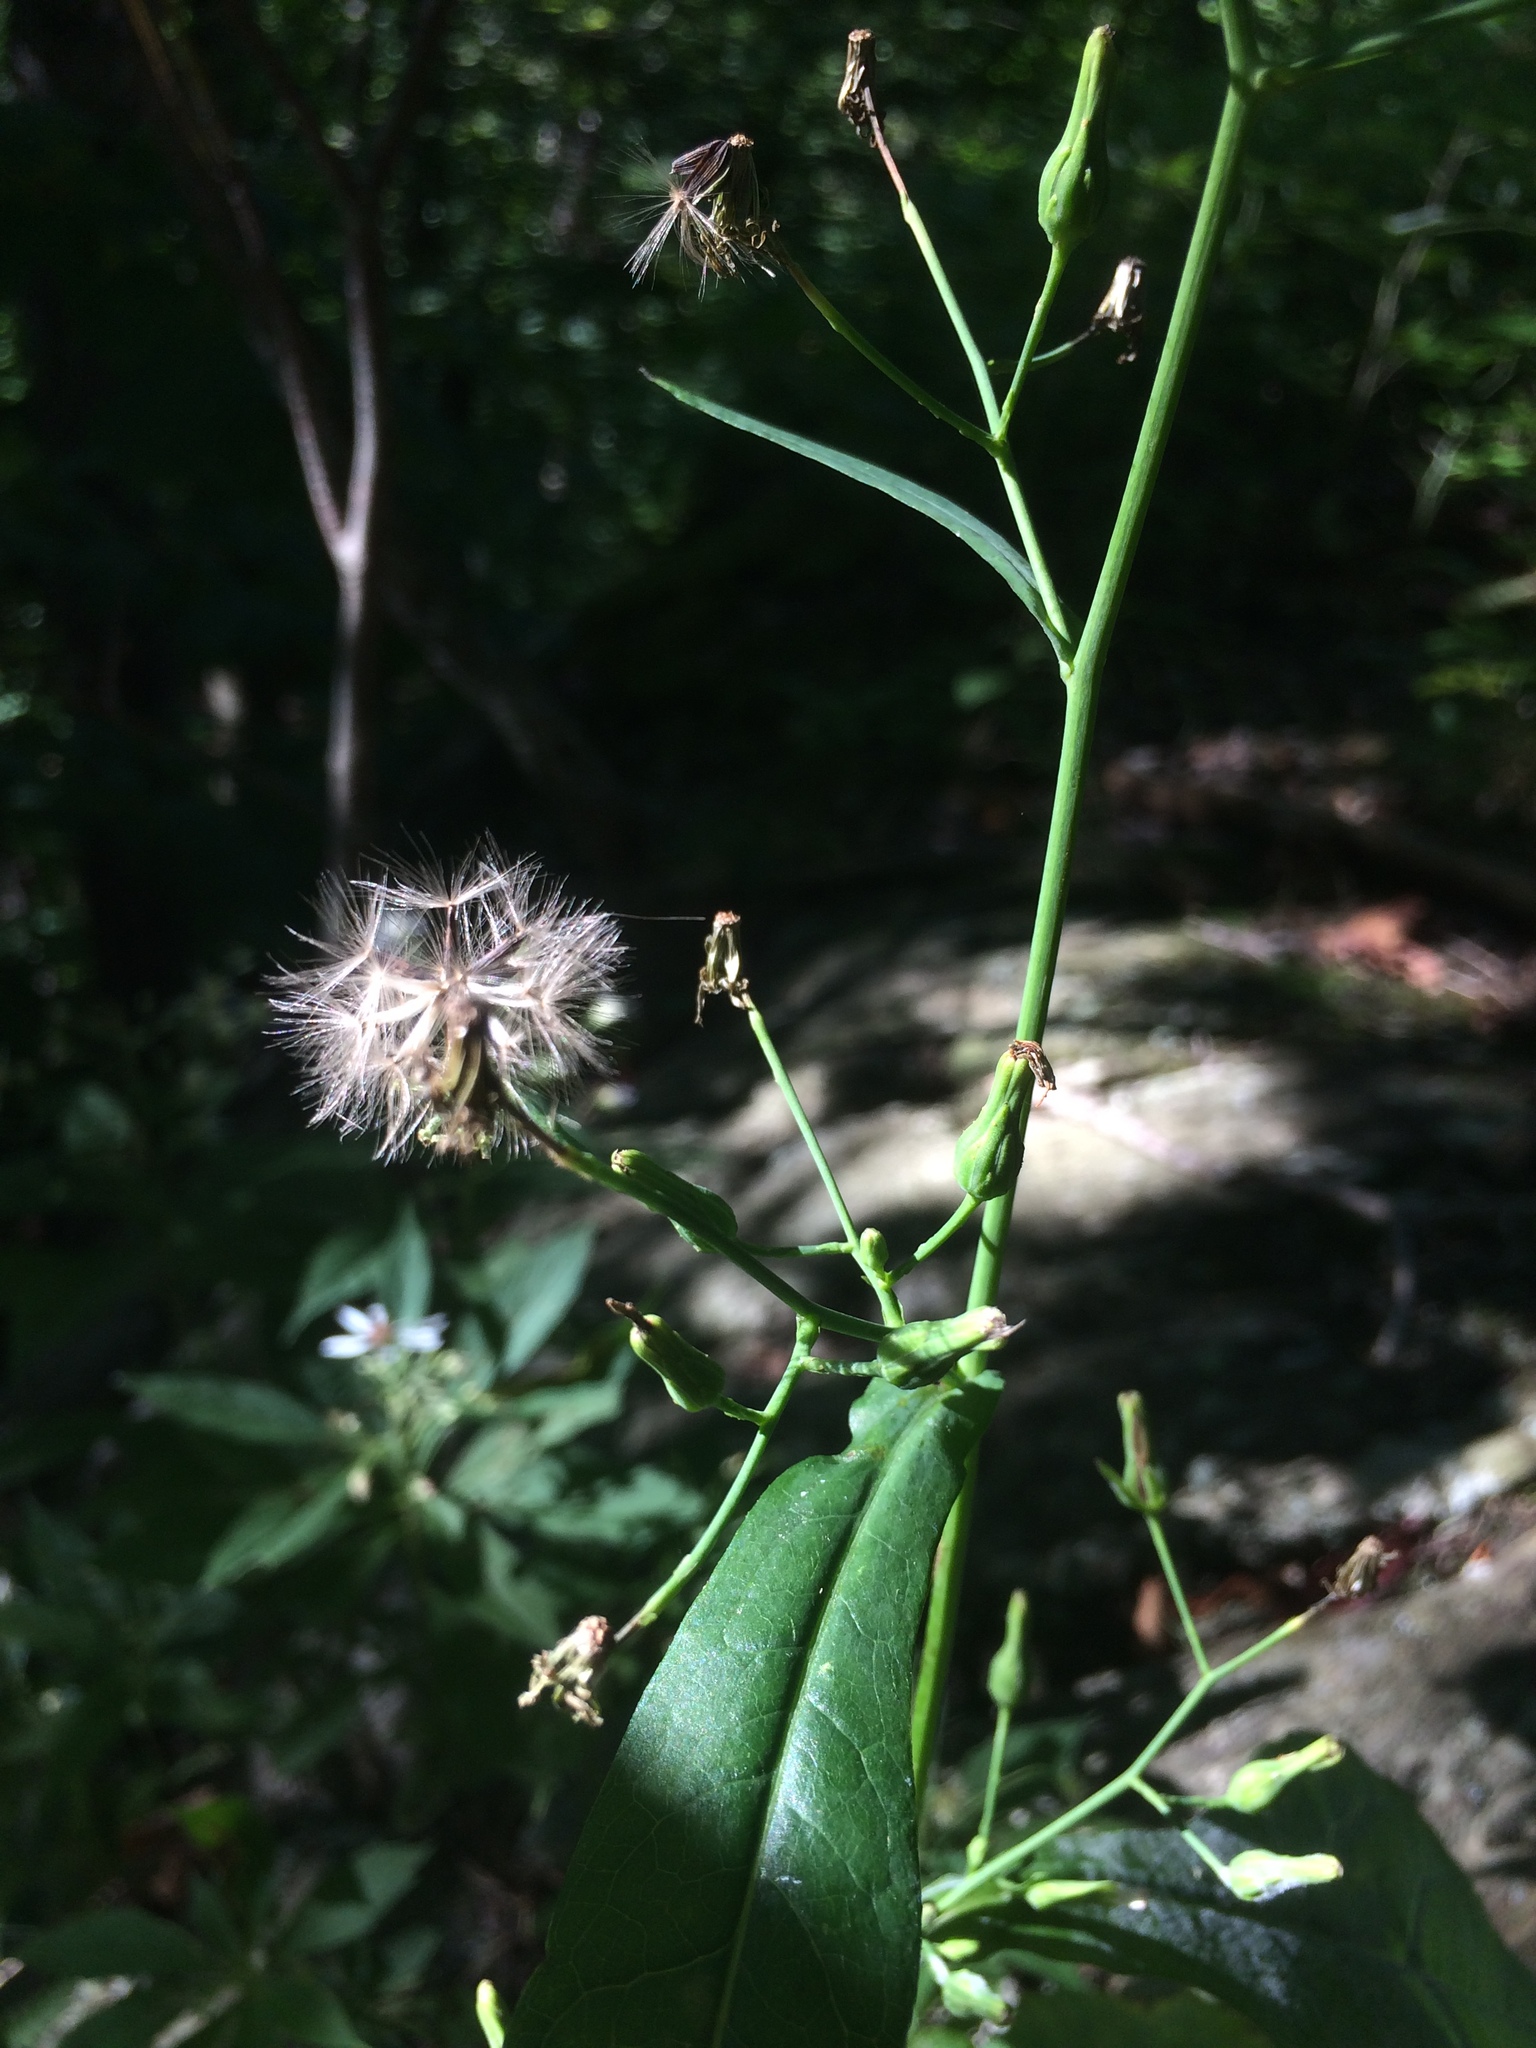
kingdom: Plantae
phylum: Tracheophyta
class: Magnoliopsida
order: Asterales
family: Asteraceae
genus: Lactuca
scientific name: Lactuca biennis
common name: Blue wood lettuce
